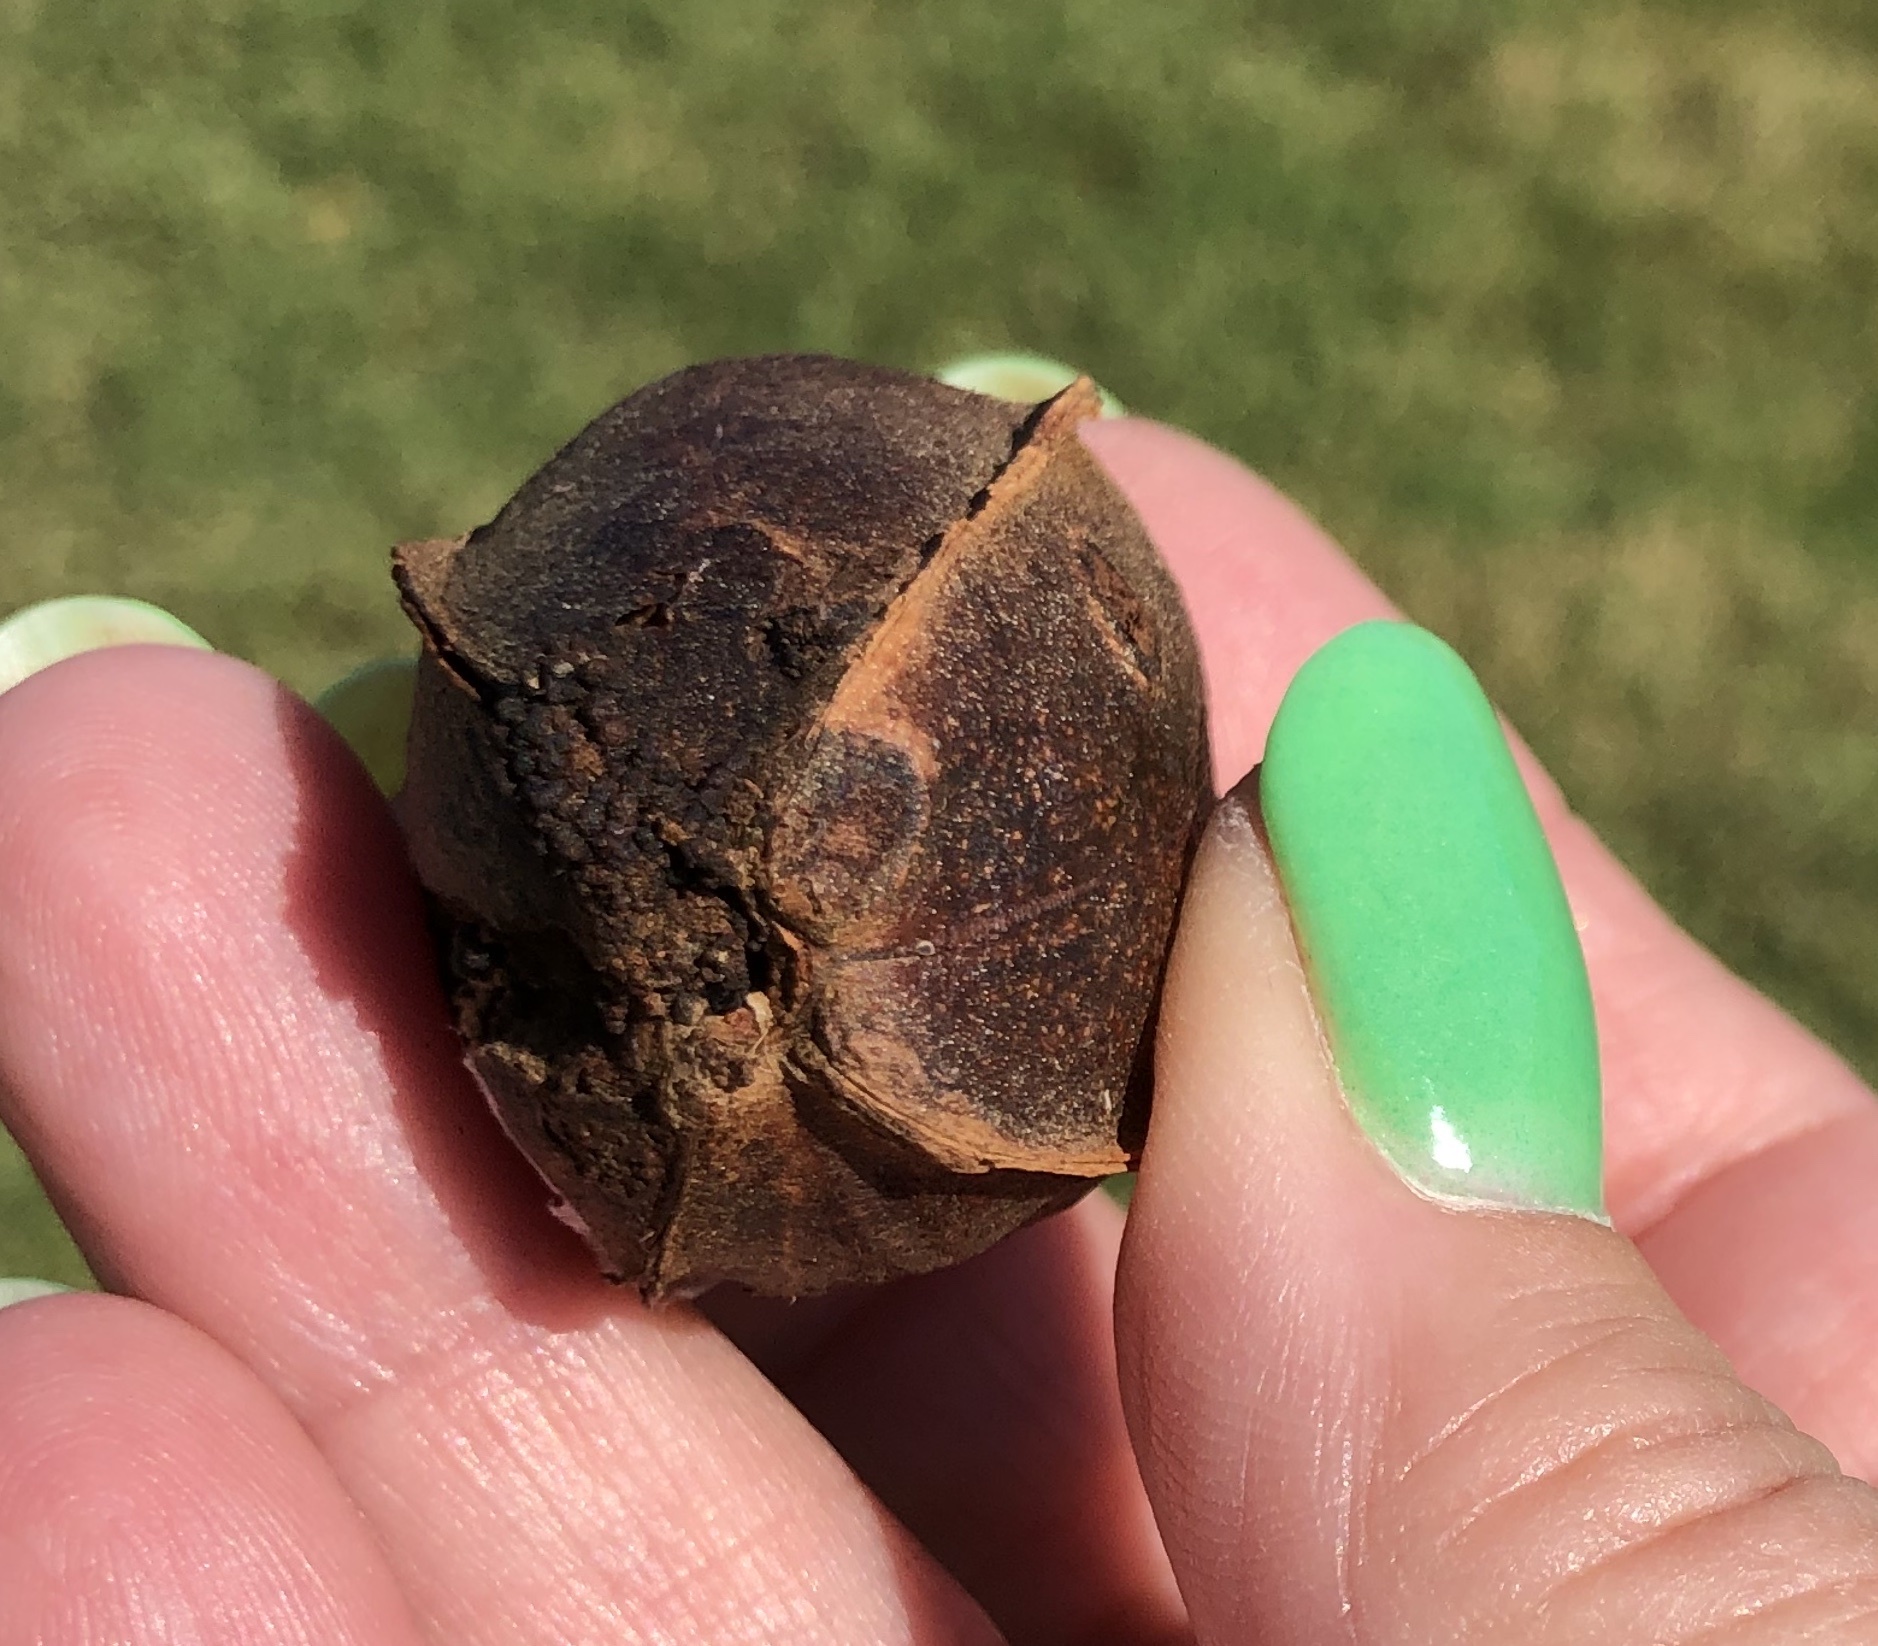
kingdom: Plantae
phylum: Tracheophyta
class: Magnoliopsida
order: Fagales
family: Juglandaceae
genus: Carya
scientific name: Carya illinoinensis
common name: Pecan
